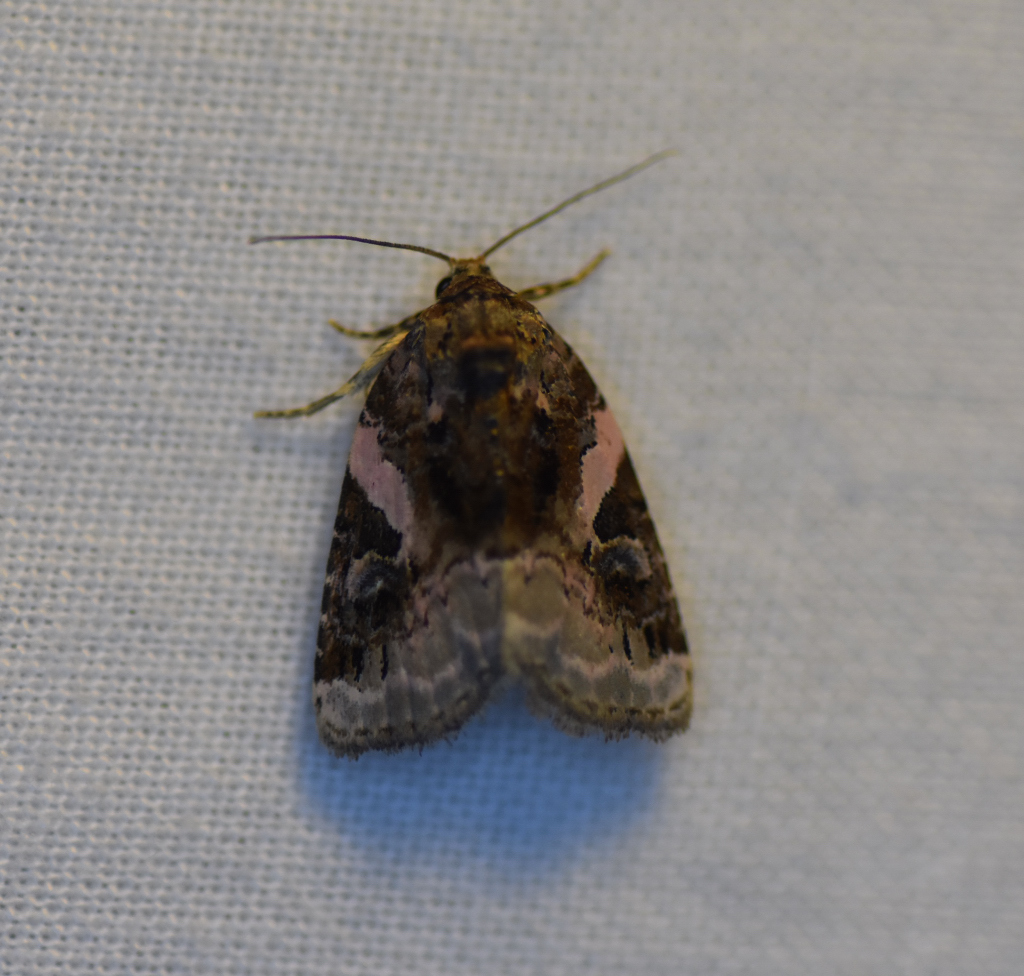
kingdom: Animalia
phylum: Arthropoda
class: Insecta
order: Lepidoptera
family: Noctuidae
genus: Pseudeustrotia
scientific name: Pseudeustrotia carneola
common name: Pink-barred lithacodia moth
